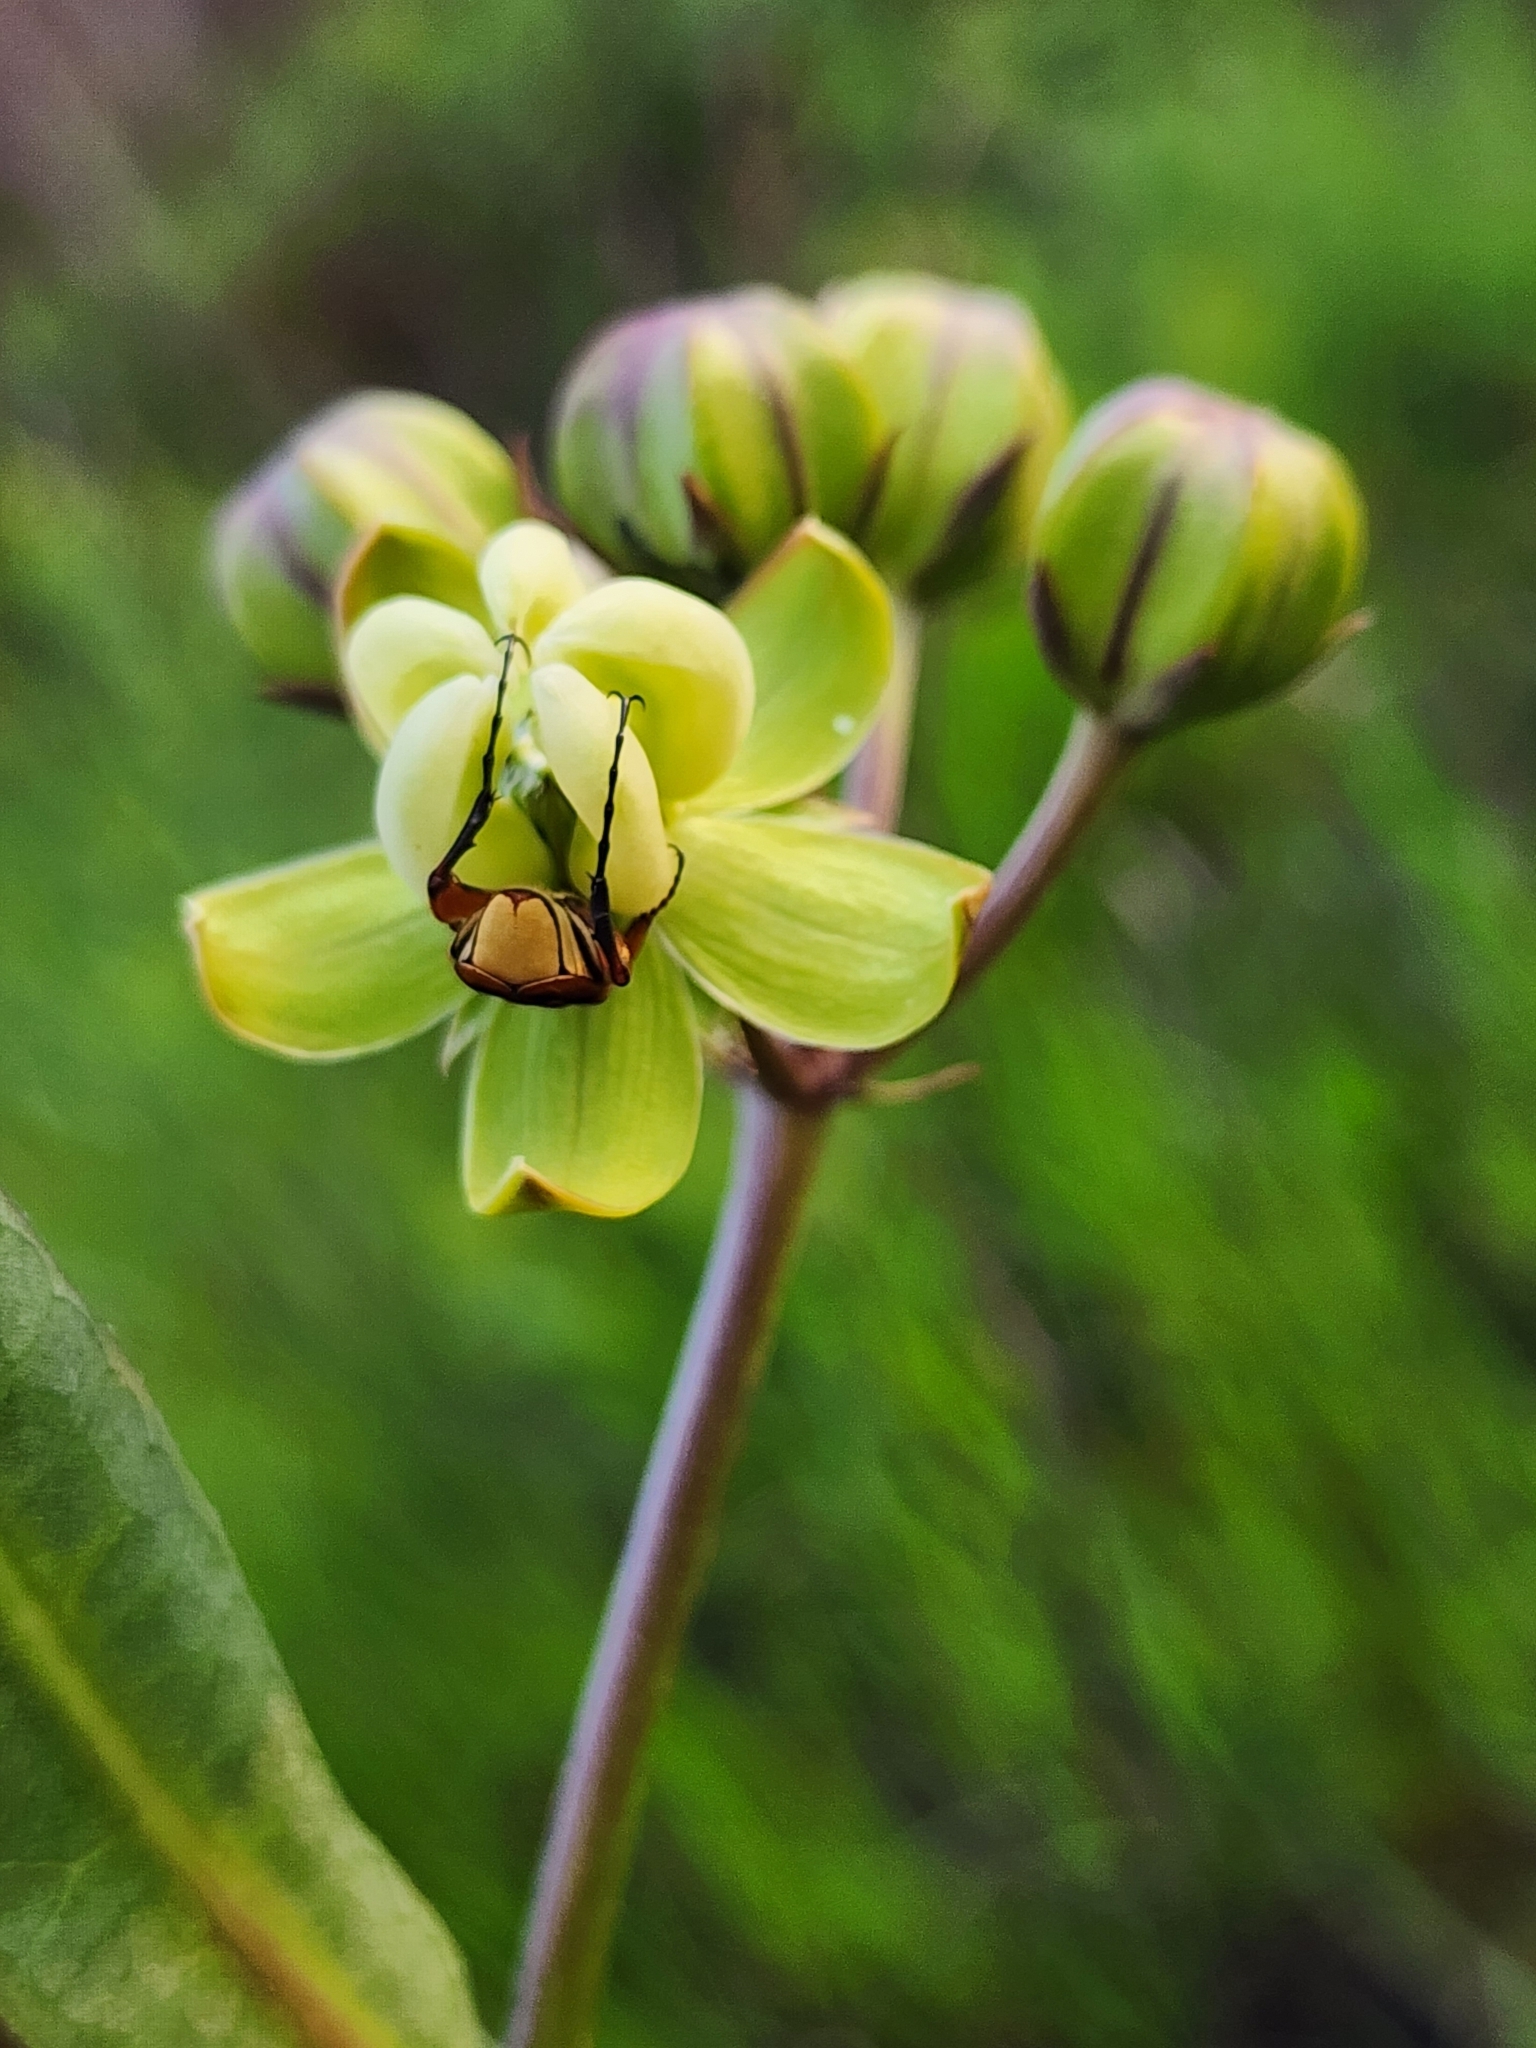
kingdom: Plantae
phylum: Tracheophyta
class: Magnoliopsida
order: Gentianales
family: Apocynaceae
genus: Asclepias
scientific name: Asclepias connivens
